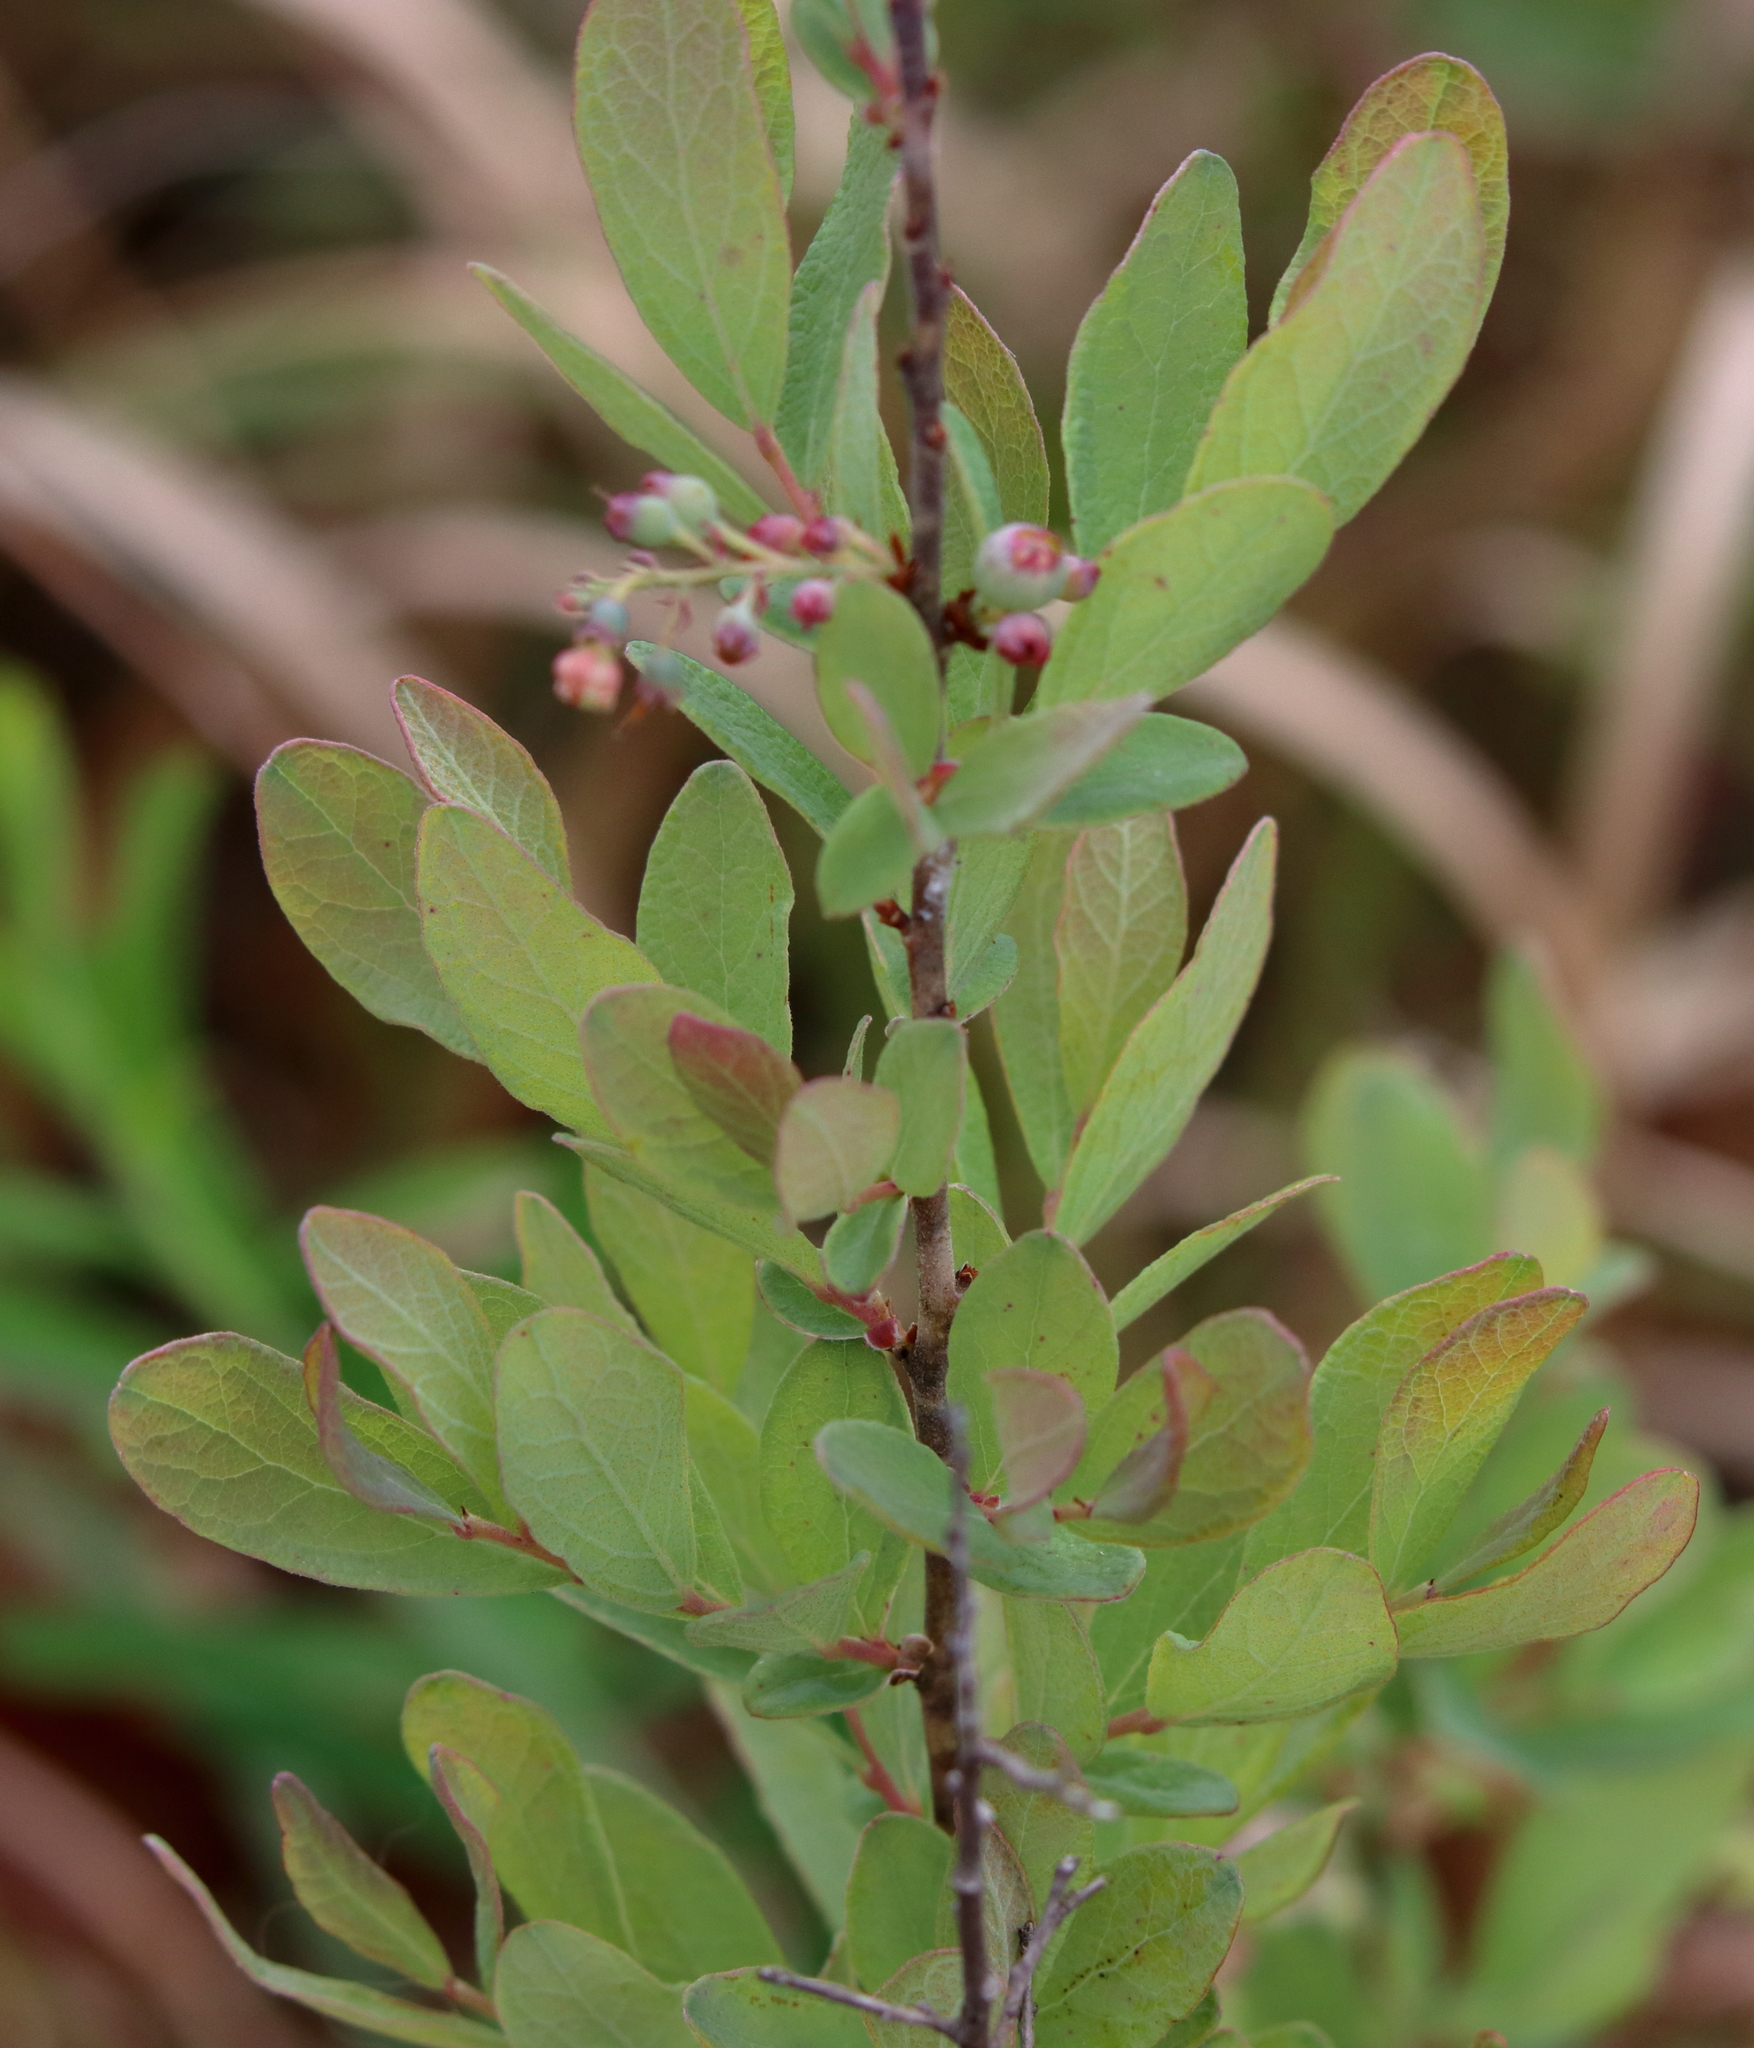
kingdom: Plantae
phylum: Tracheophyta
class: Magnoliopsida
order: Ericales
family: Ericaceae
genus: Gaylussacia
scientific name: Gaylussacia nana
